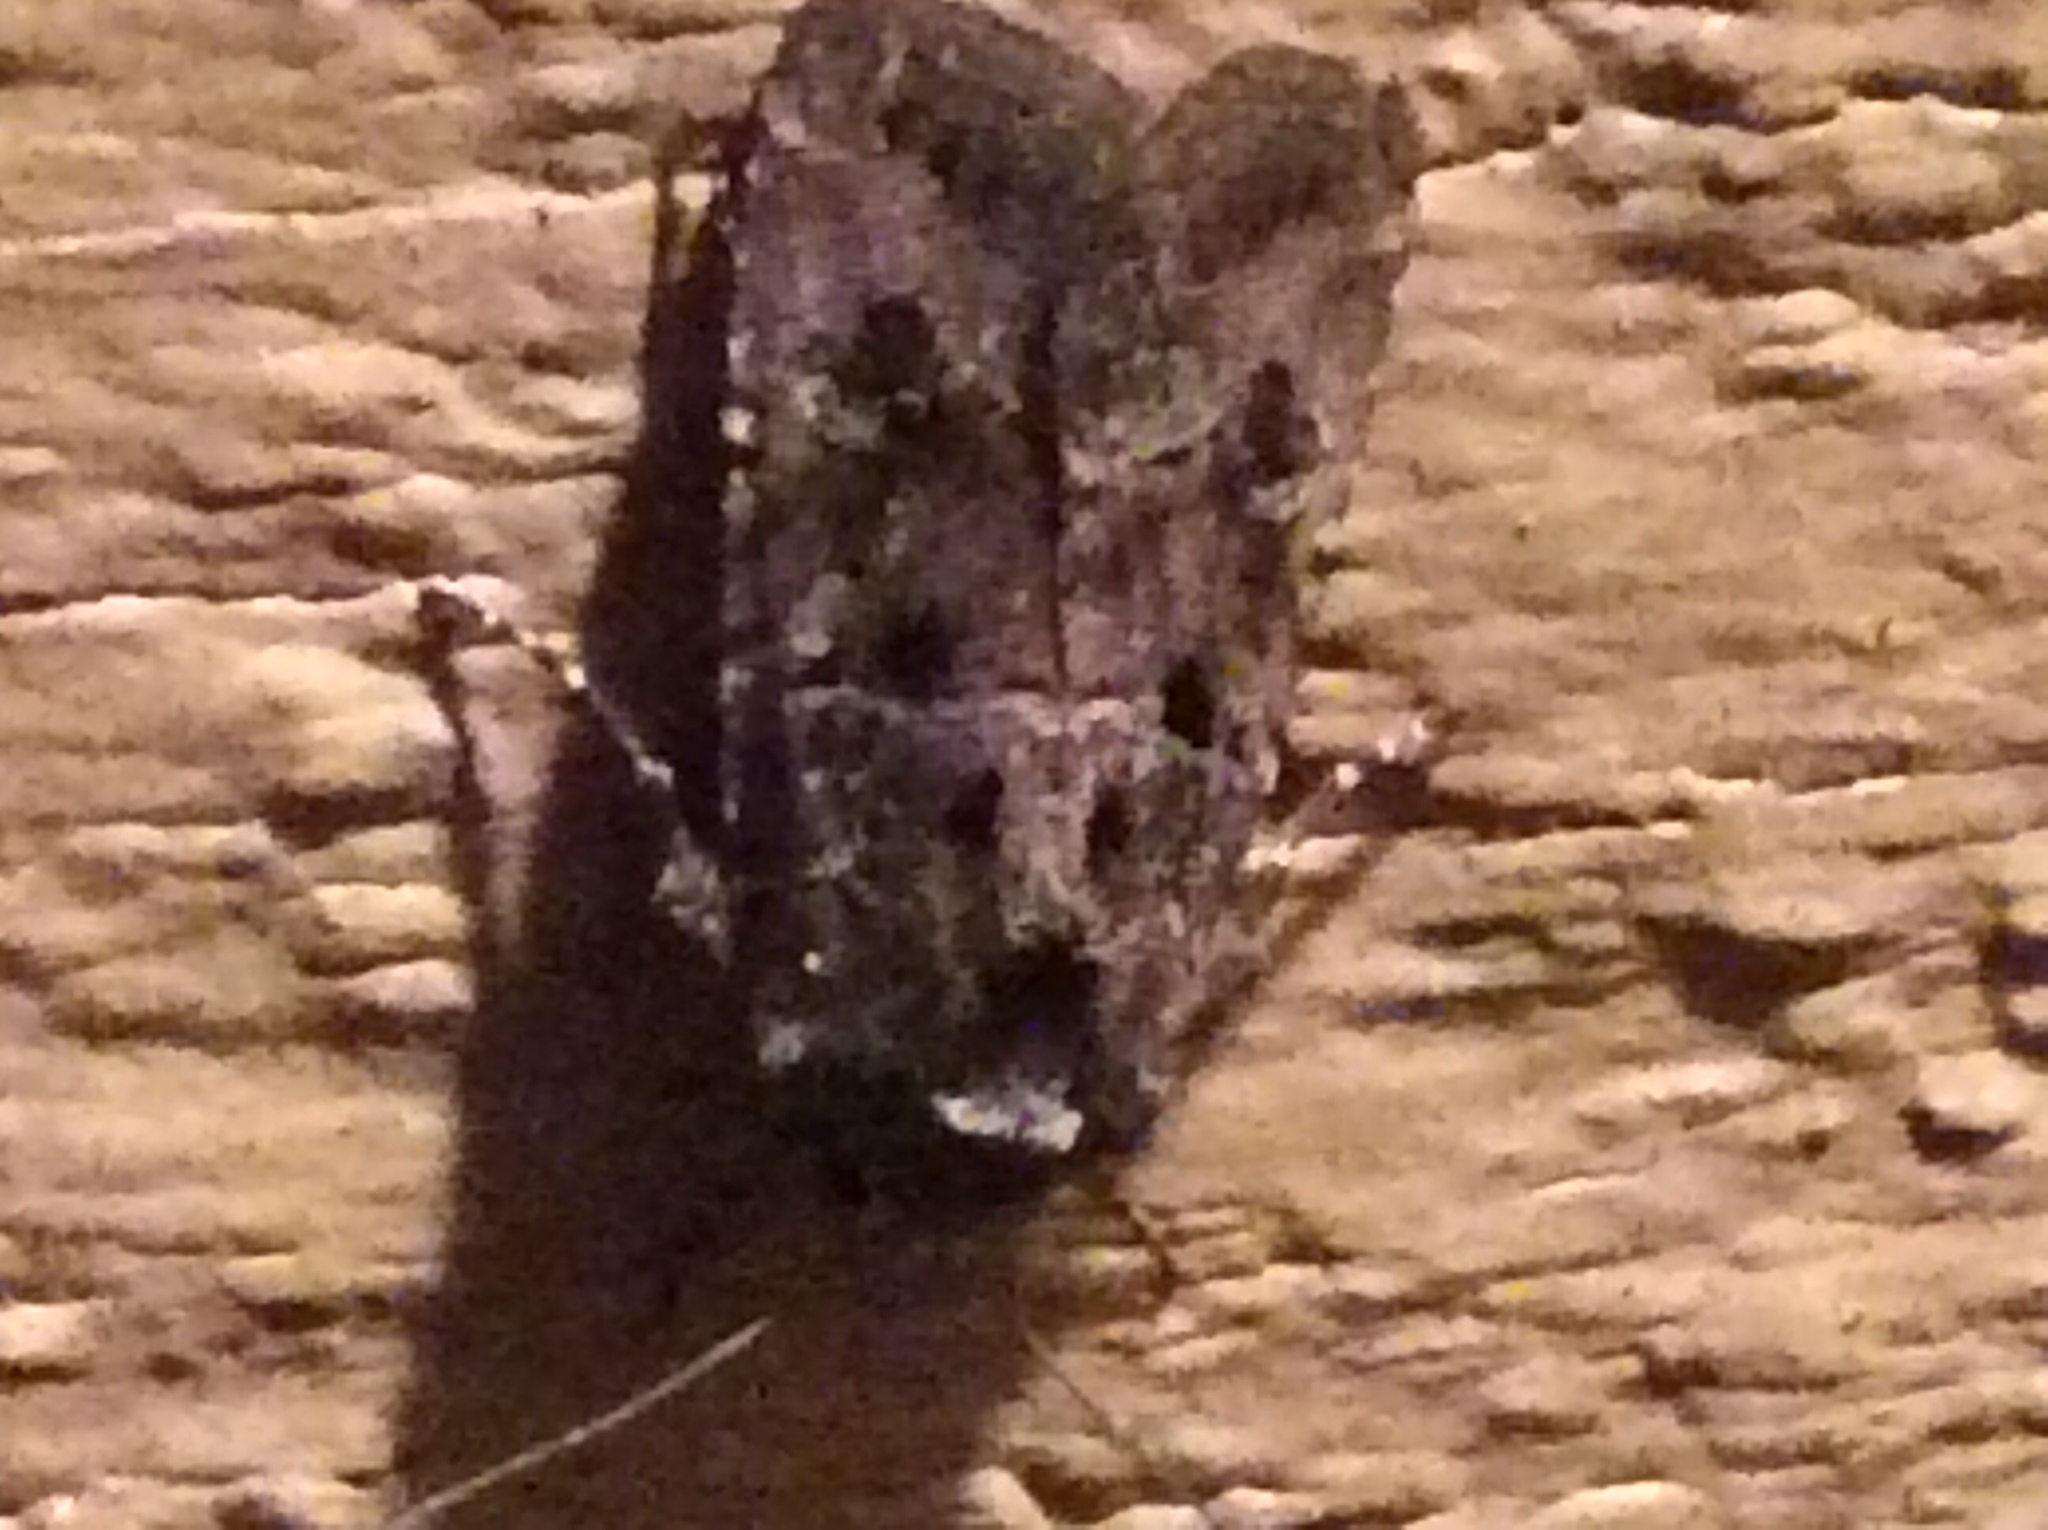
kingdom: Animalia
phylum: Arthropoda
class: Insecta
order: Lepidoptera
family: Noctuidae
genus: Lacinipolia
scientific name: Lacinipolia renigera
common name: Kidney-spotted minor
